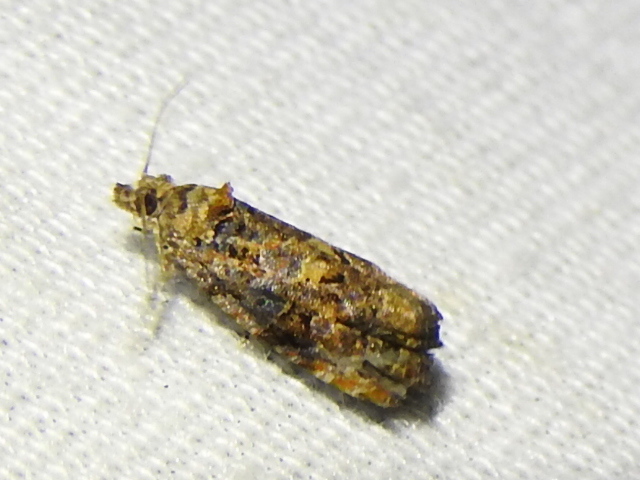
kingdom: Animalia
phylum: Arthropoda
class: Insecta
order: Lepidoptera
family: Tortricidae
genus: Endothenia
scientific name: Endothenia hebesana
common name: Verbena bud moth
